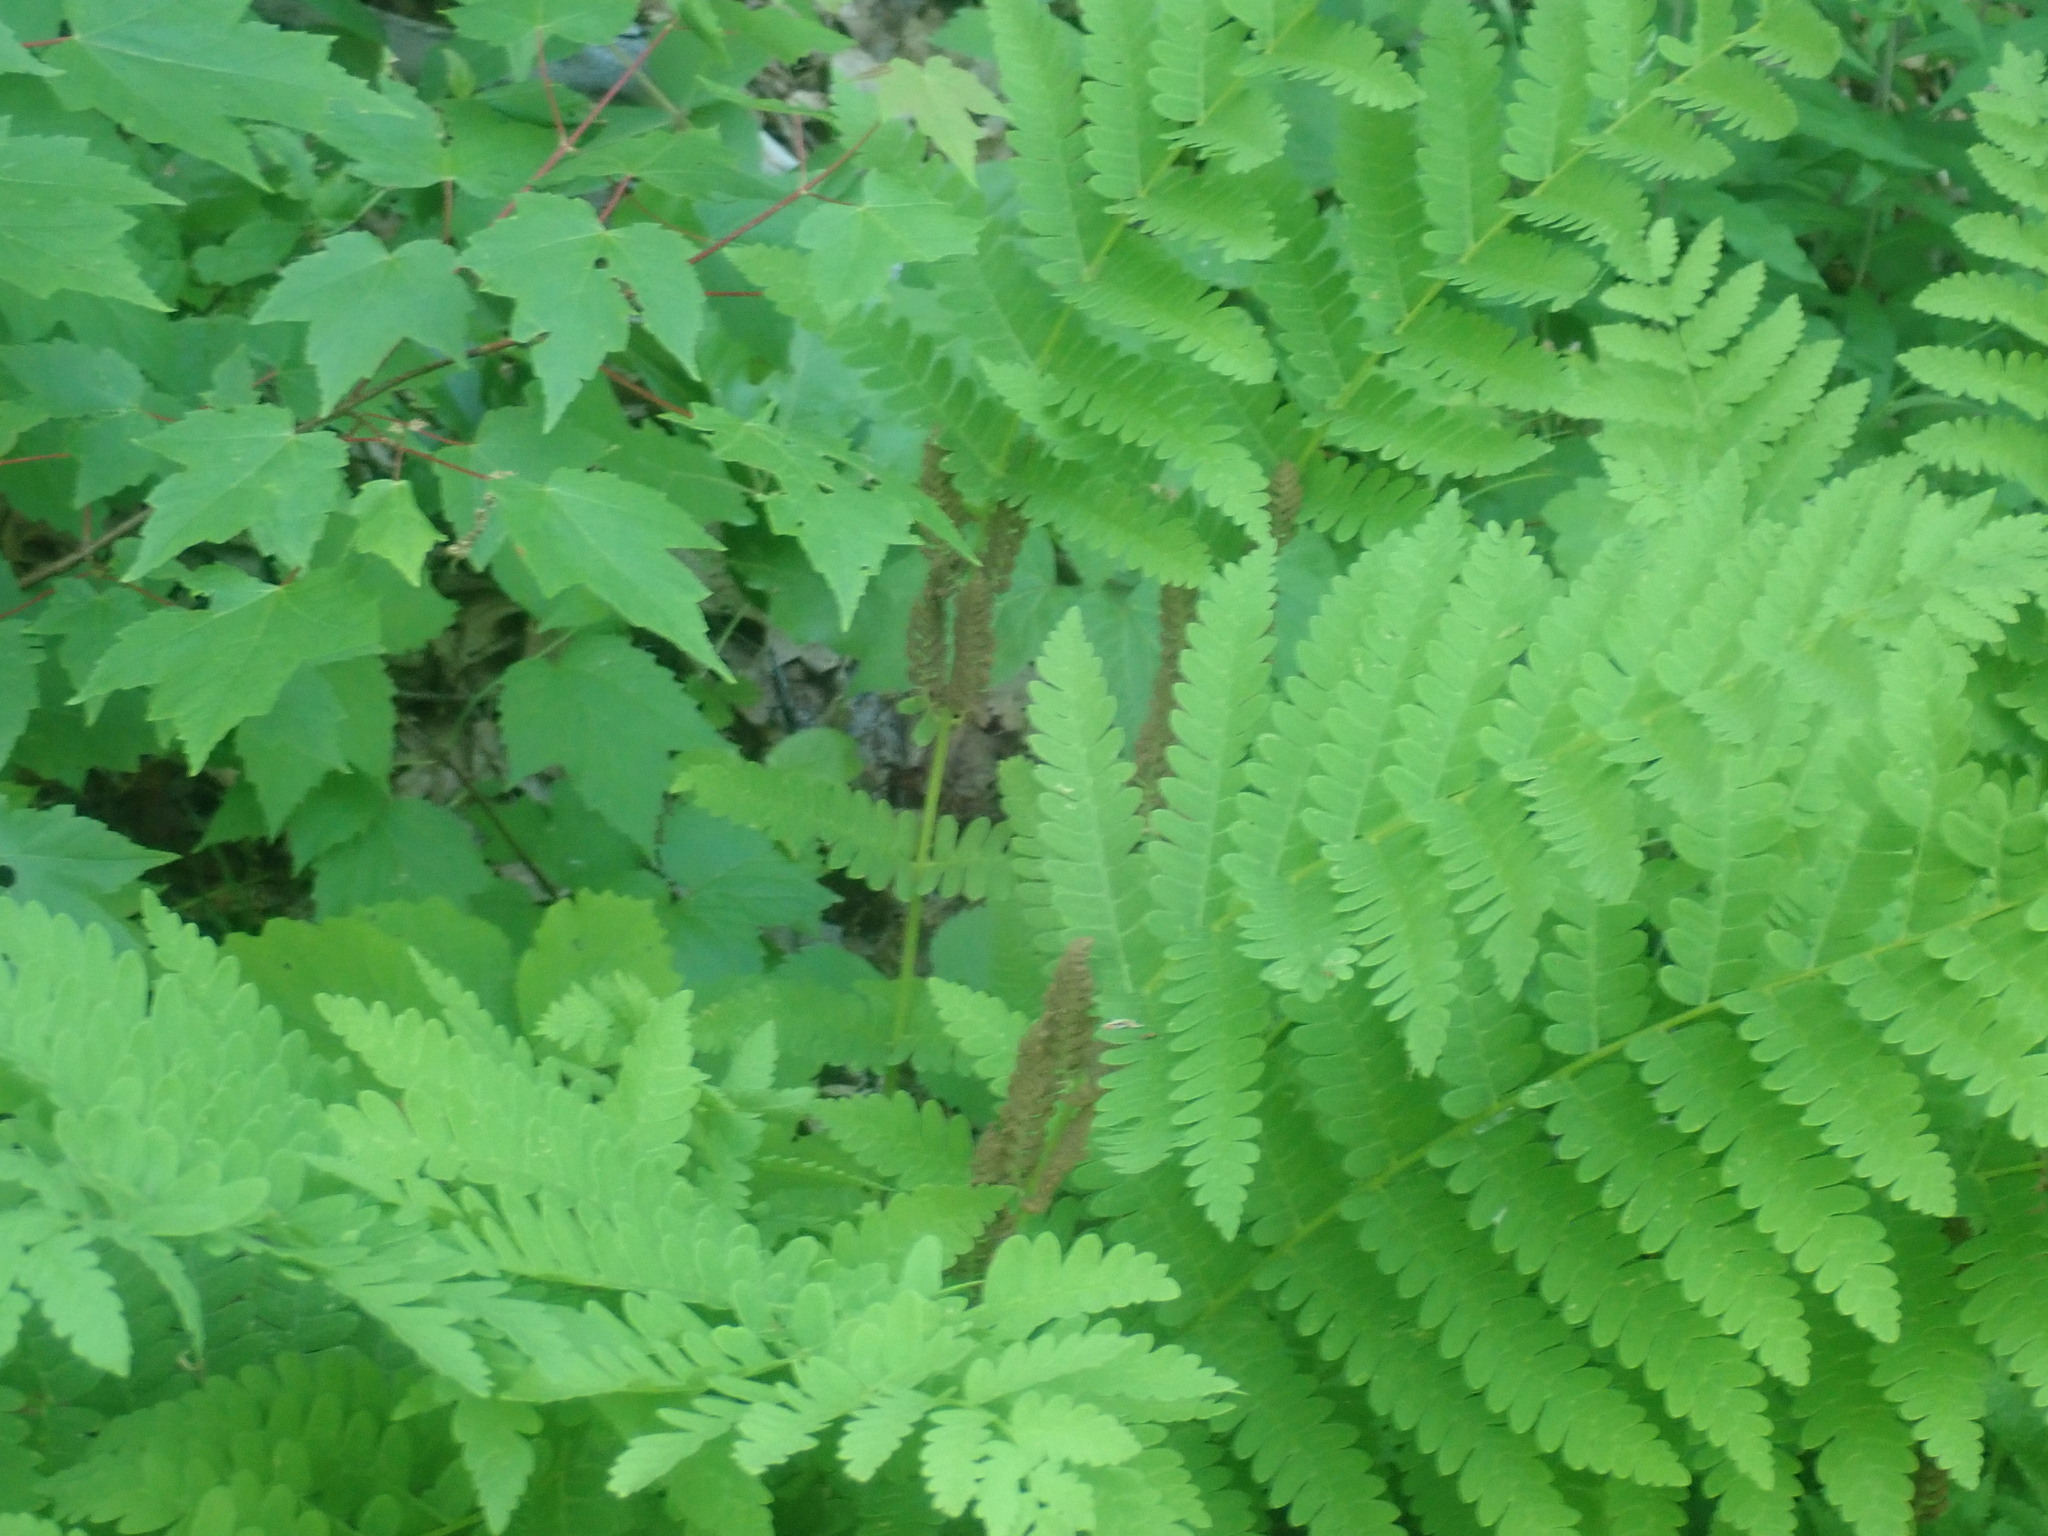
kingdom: Plantae
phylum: Tracheophyta
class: Polypodiopsida
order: Osmundales
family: Osmundaceae
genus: Claytosmunda
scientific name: Claytosmunda claytoniana
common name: Clayton's fern
